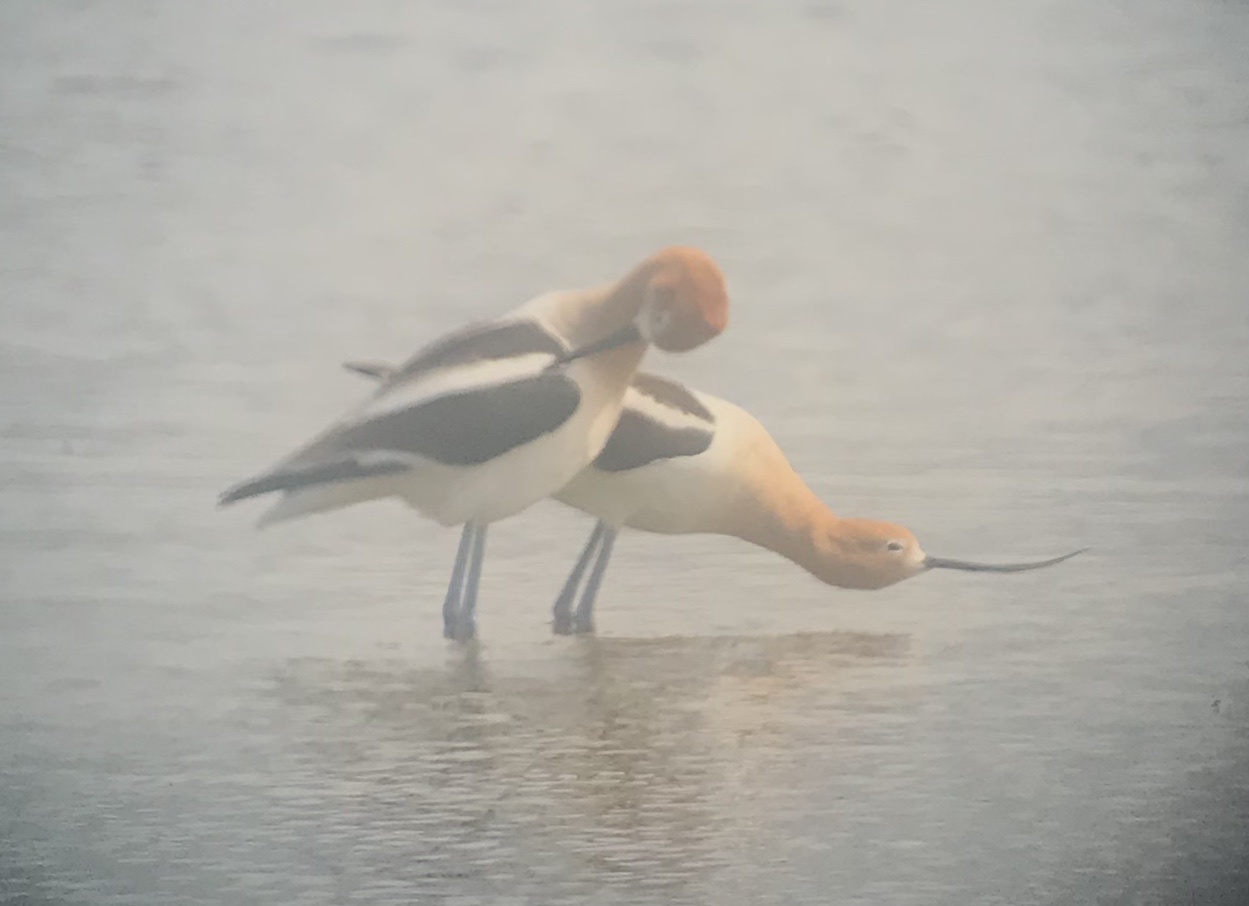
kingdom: Animalia
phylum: Chordata
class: Aves
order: Charadriiformes
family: Recurvirostridae
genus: Recurvirostra
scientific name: Recurvirostra americana
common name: American avocet
